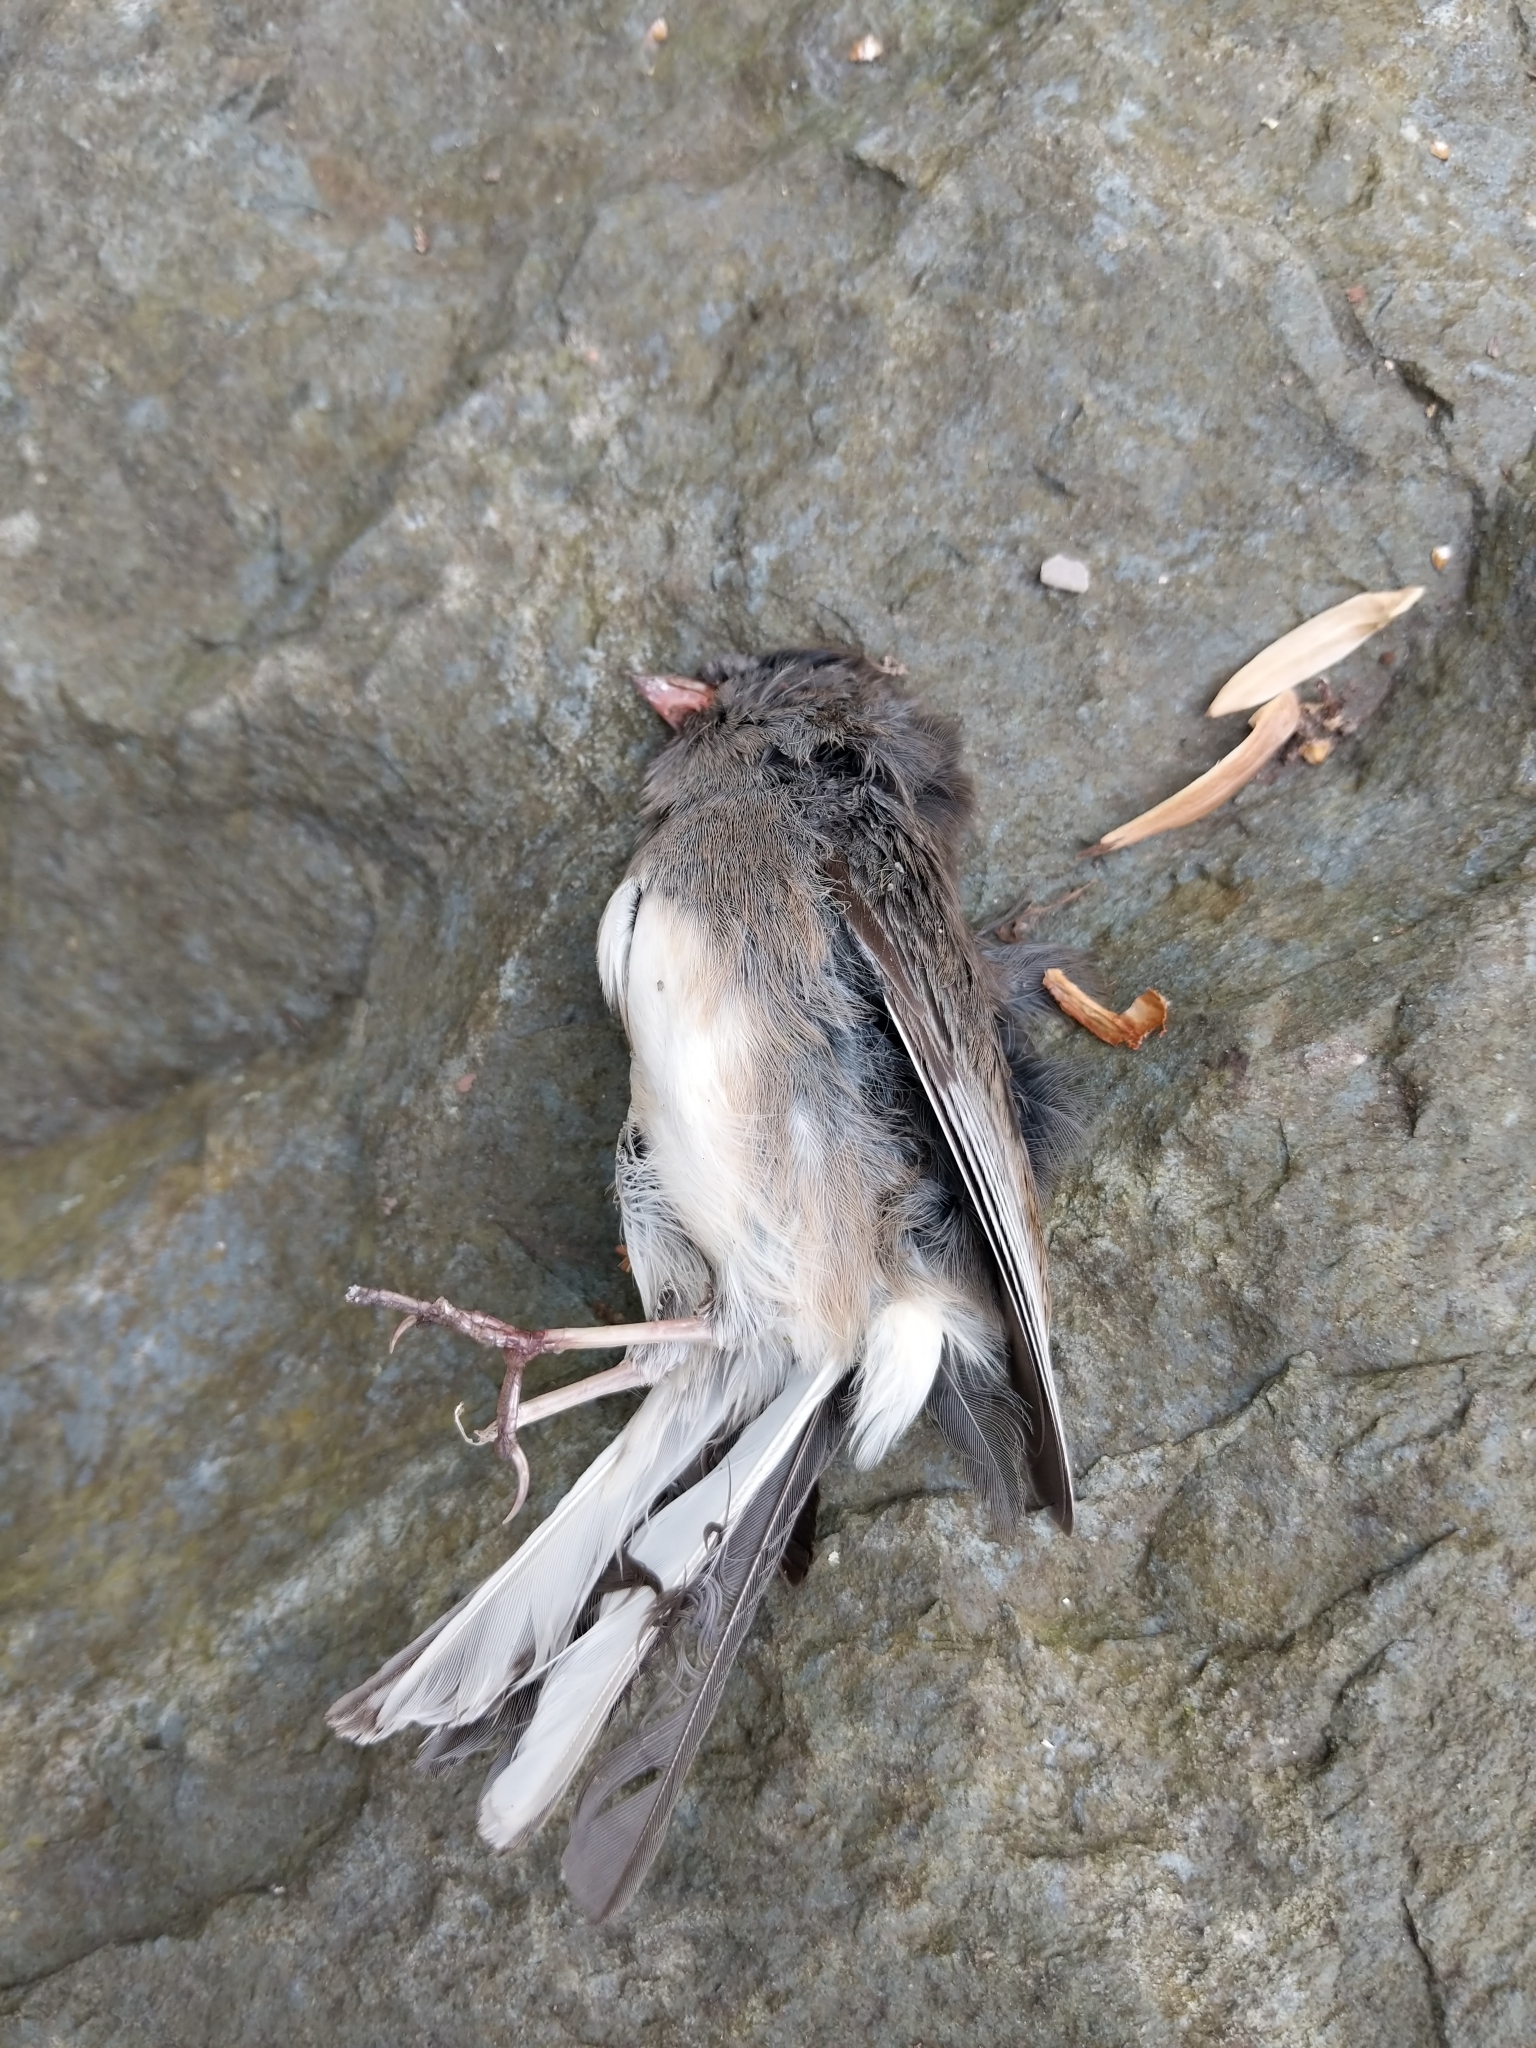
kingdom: Animalia
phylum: Chordata
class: Aves
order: Passeriformes
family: Passerellidae
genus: Junco
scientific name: Junco hyemalis
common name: Dark-eyed junco
